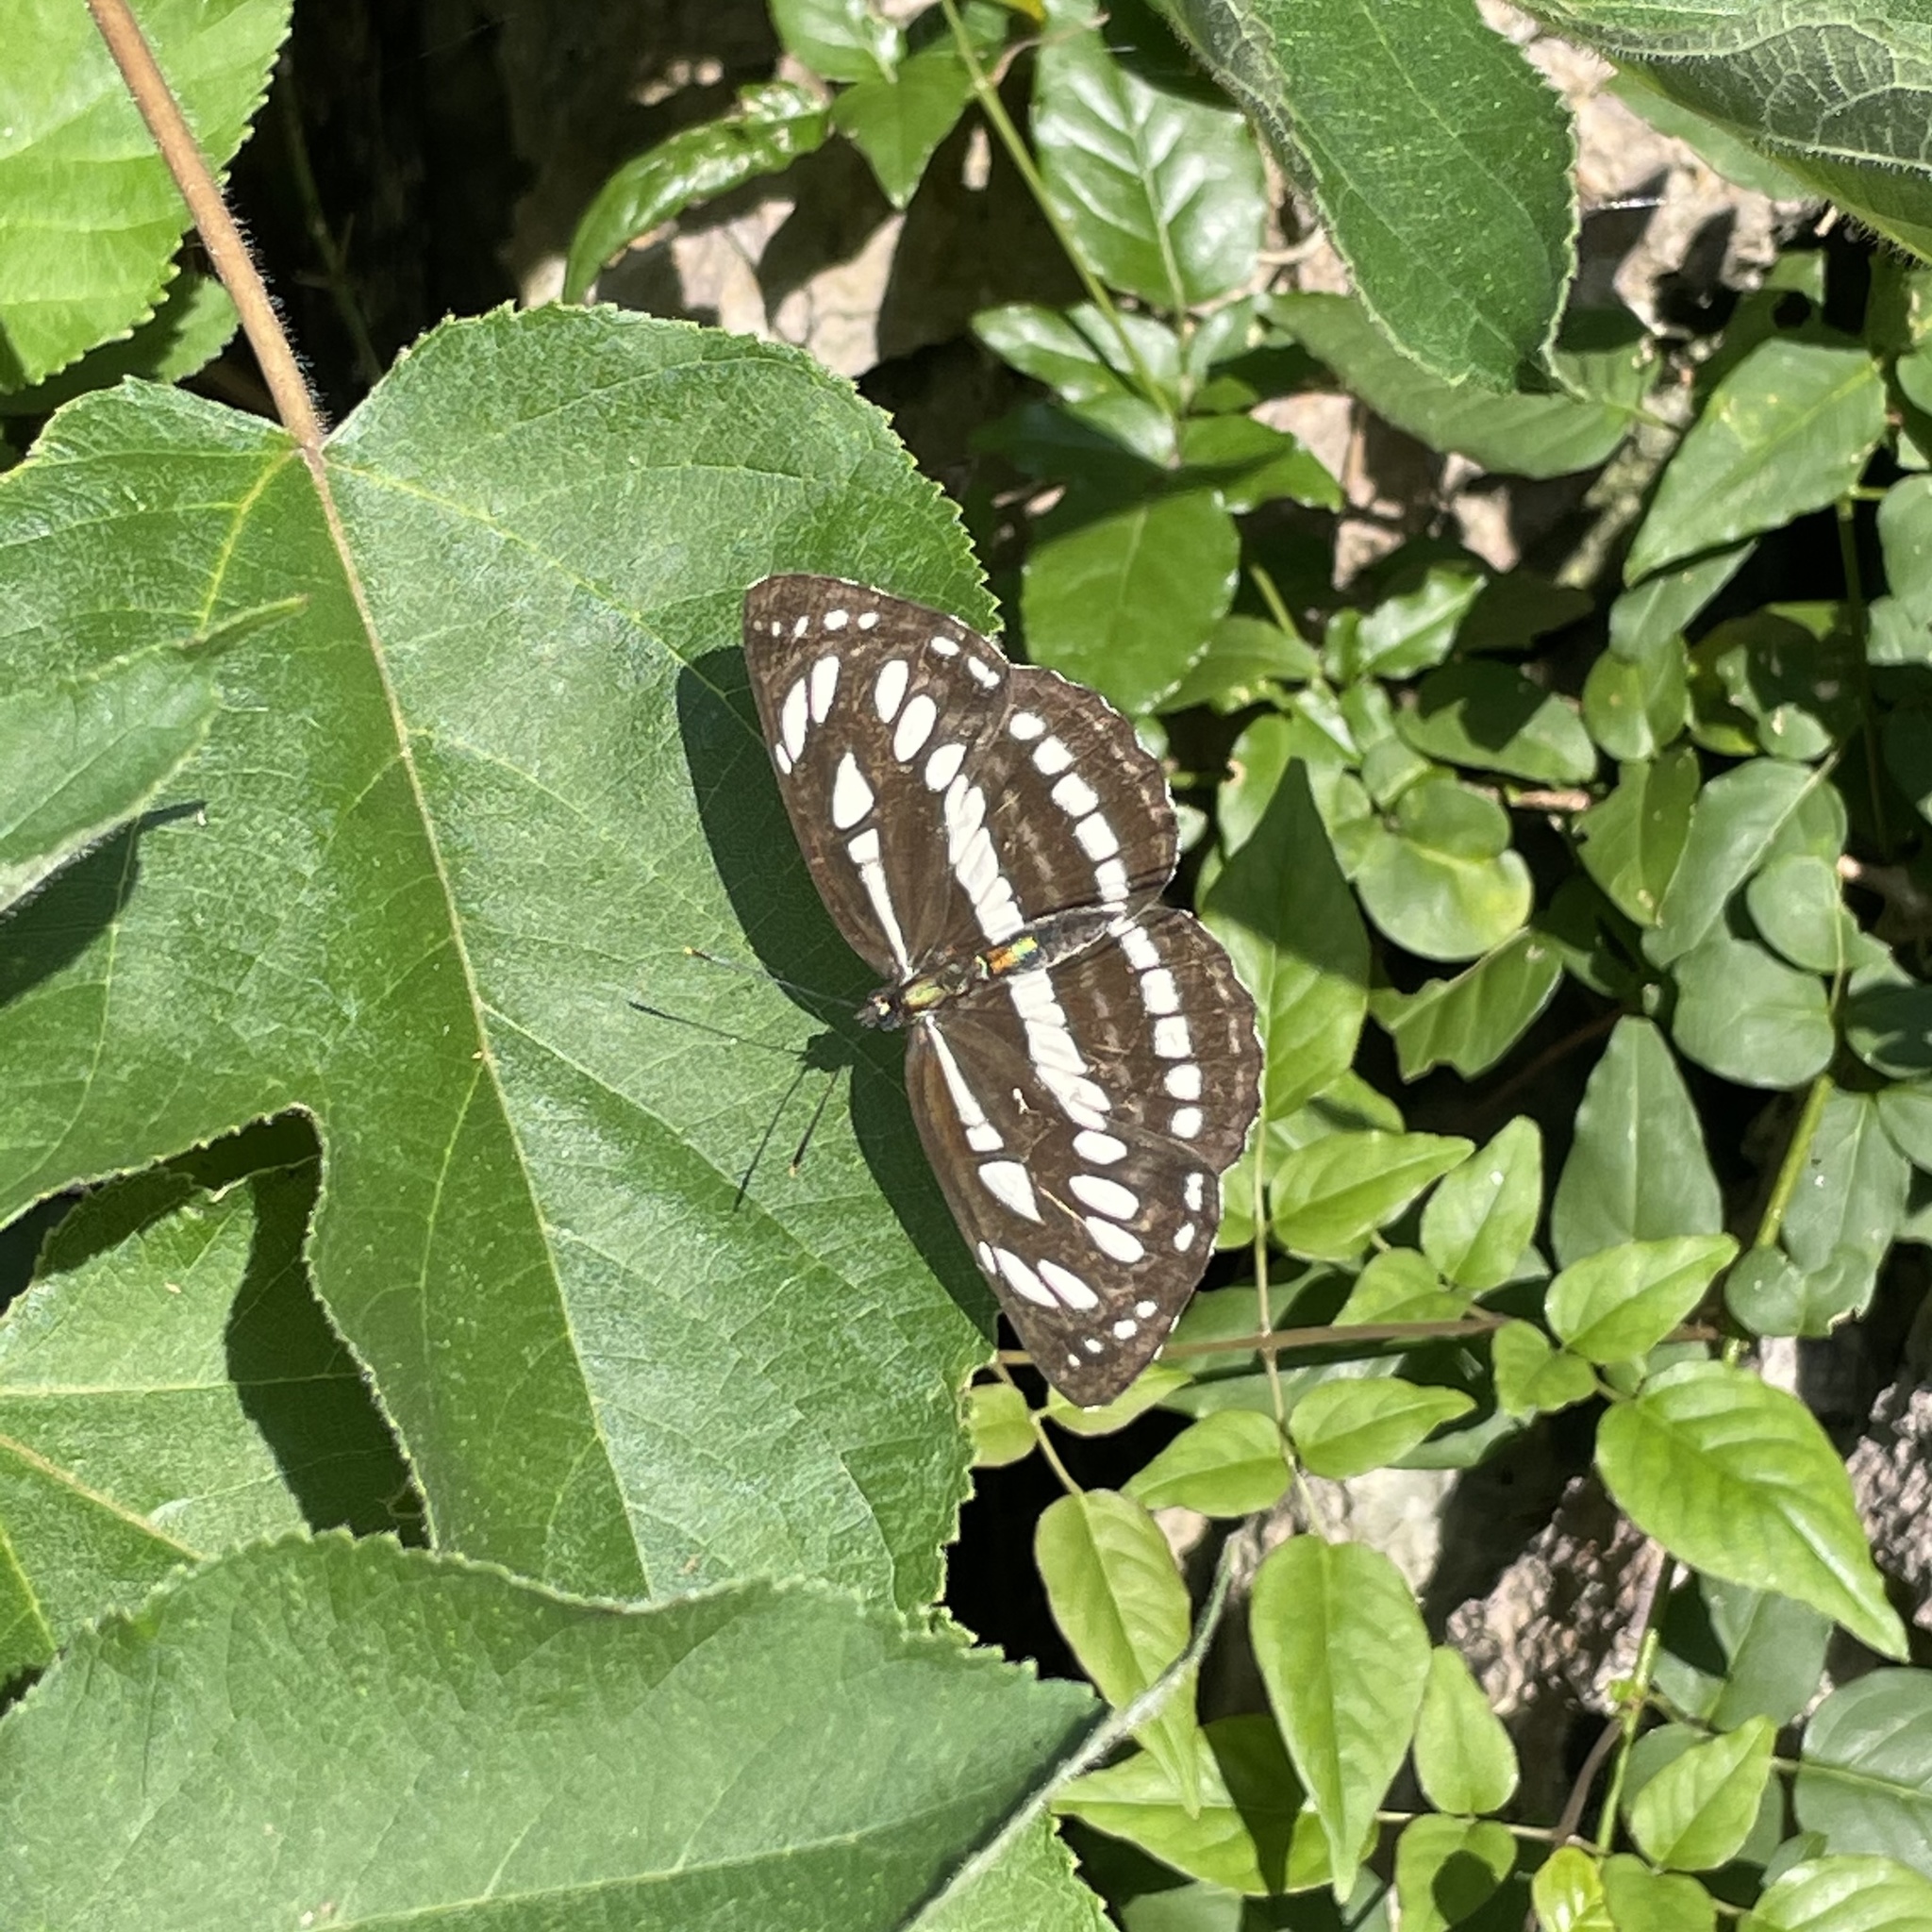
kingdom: Animalia
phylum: Arthropoda
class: Insecta
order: Lepidoptera
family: Nymphalidae
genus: Neptis
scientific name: Neptis hylas
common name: Common sailer
